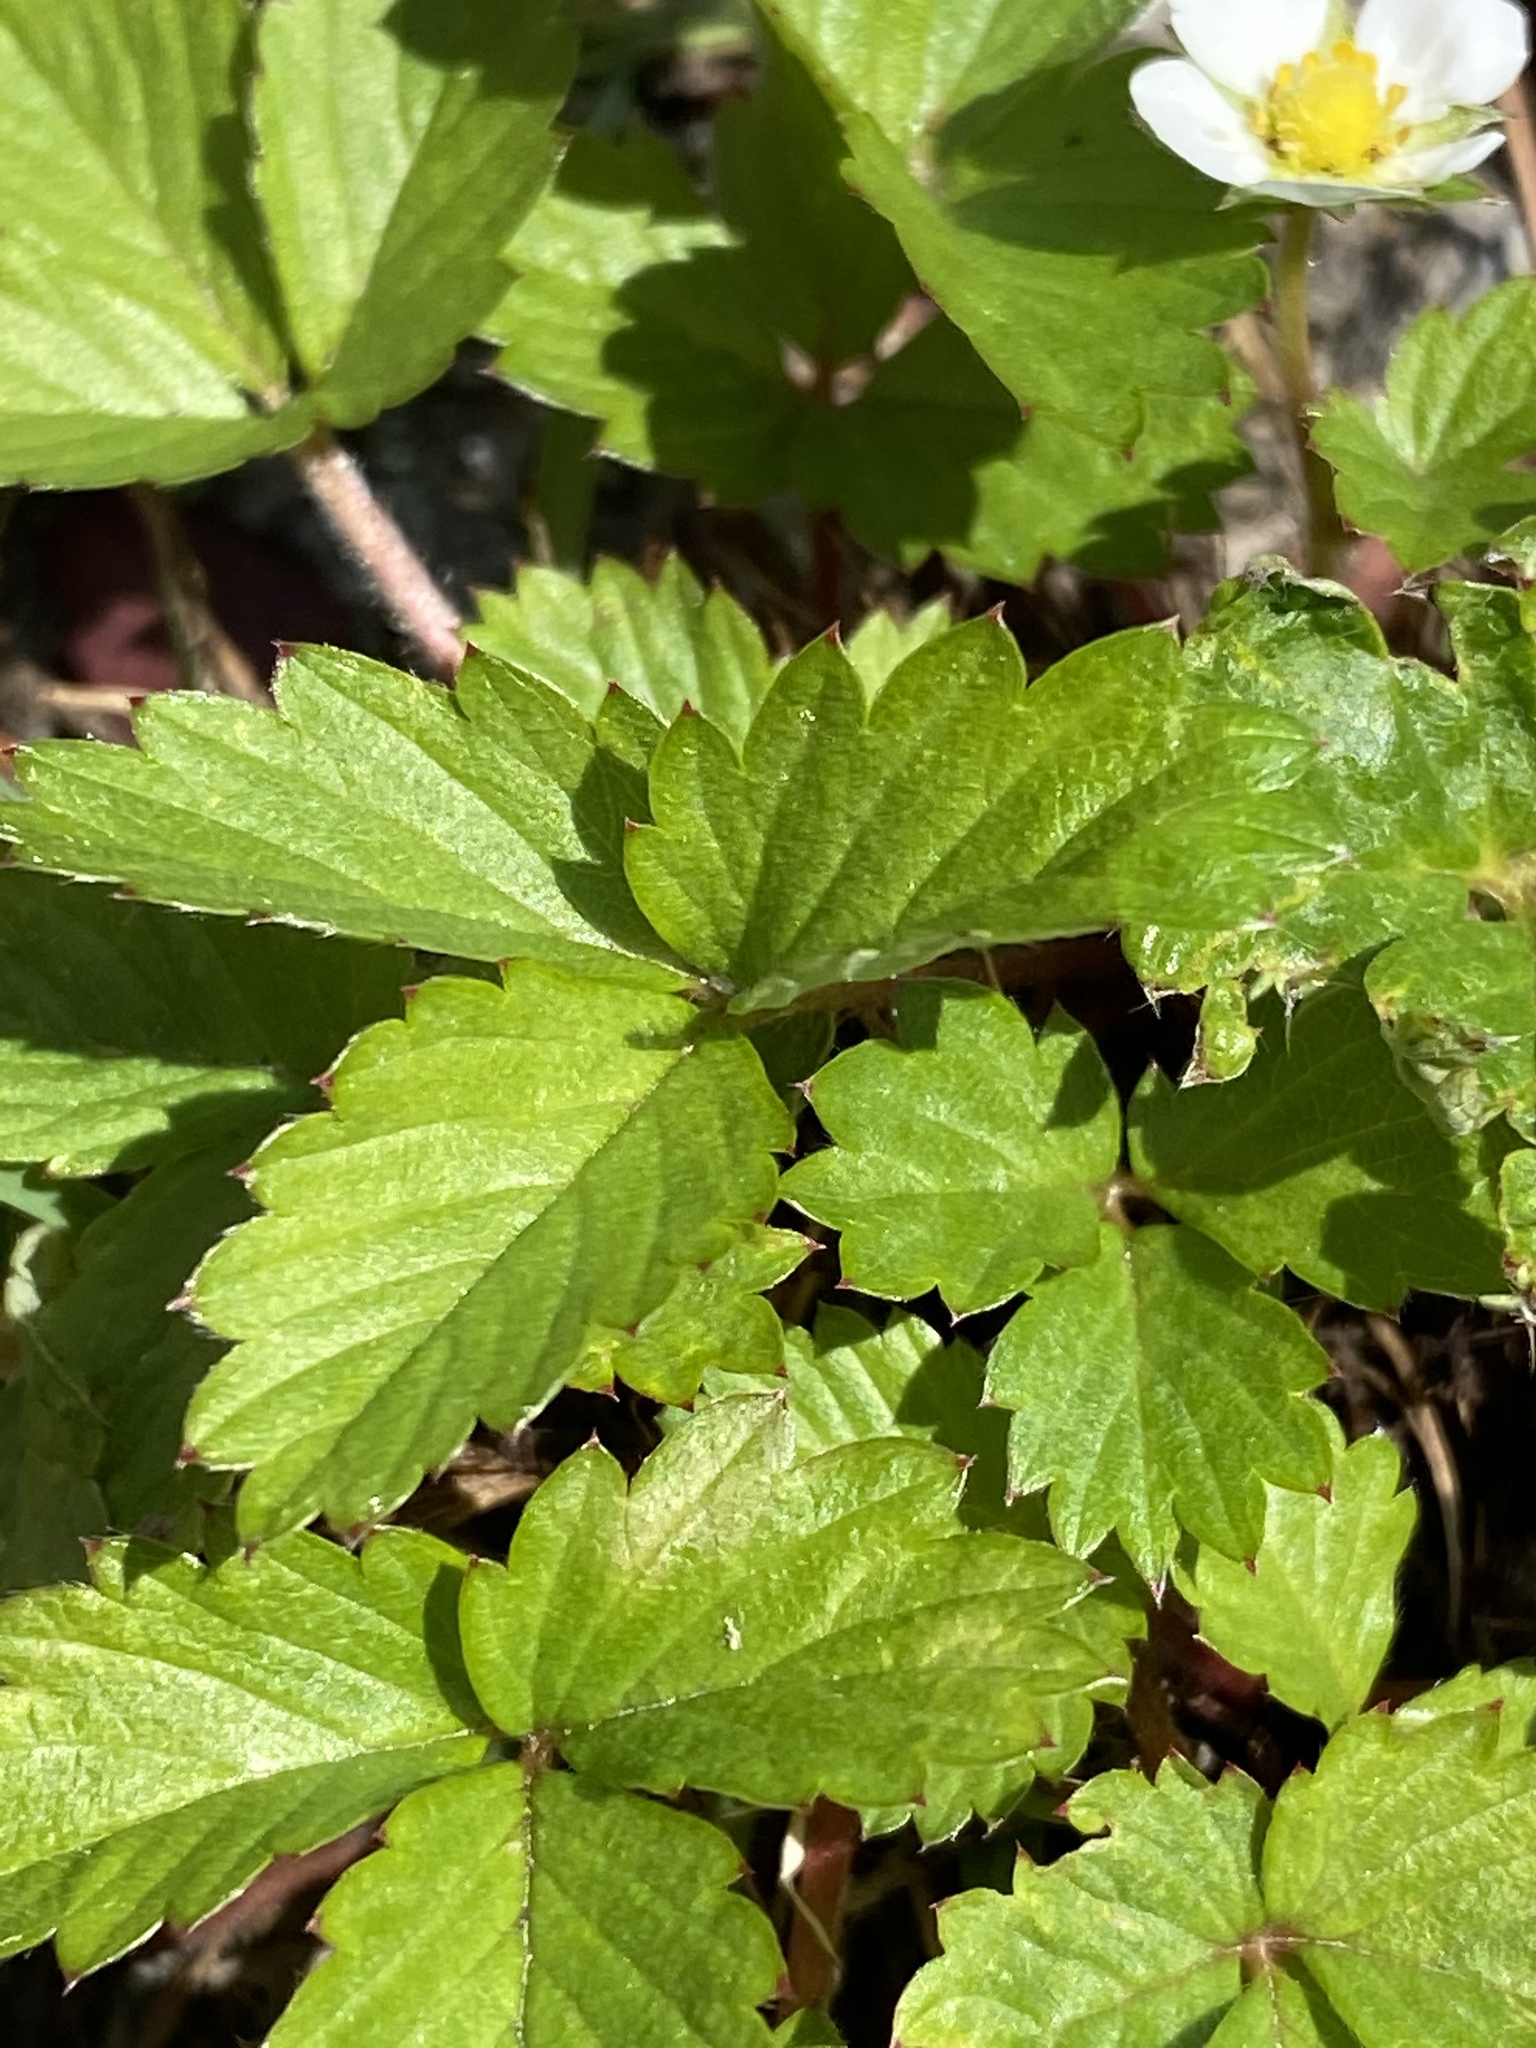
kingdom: Plantae
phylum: Tracheophyta
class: Magnoliopsida
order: Rosales
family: Rosaceae
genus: Fragaria
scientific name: Fragaria vesca
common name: Wild strawberry
